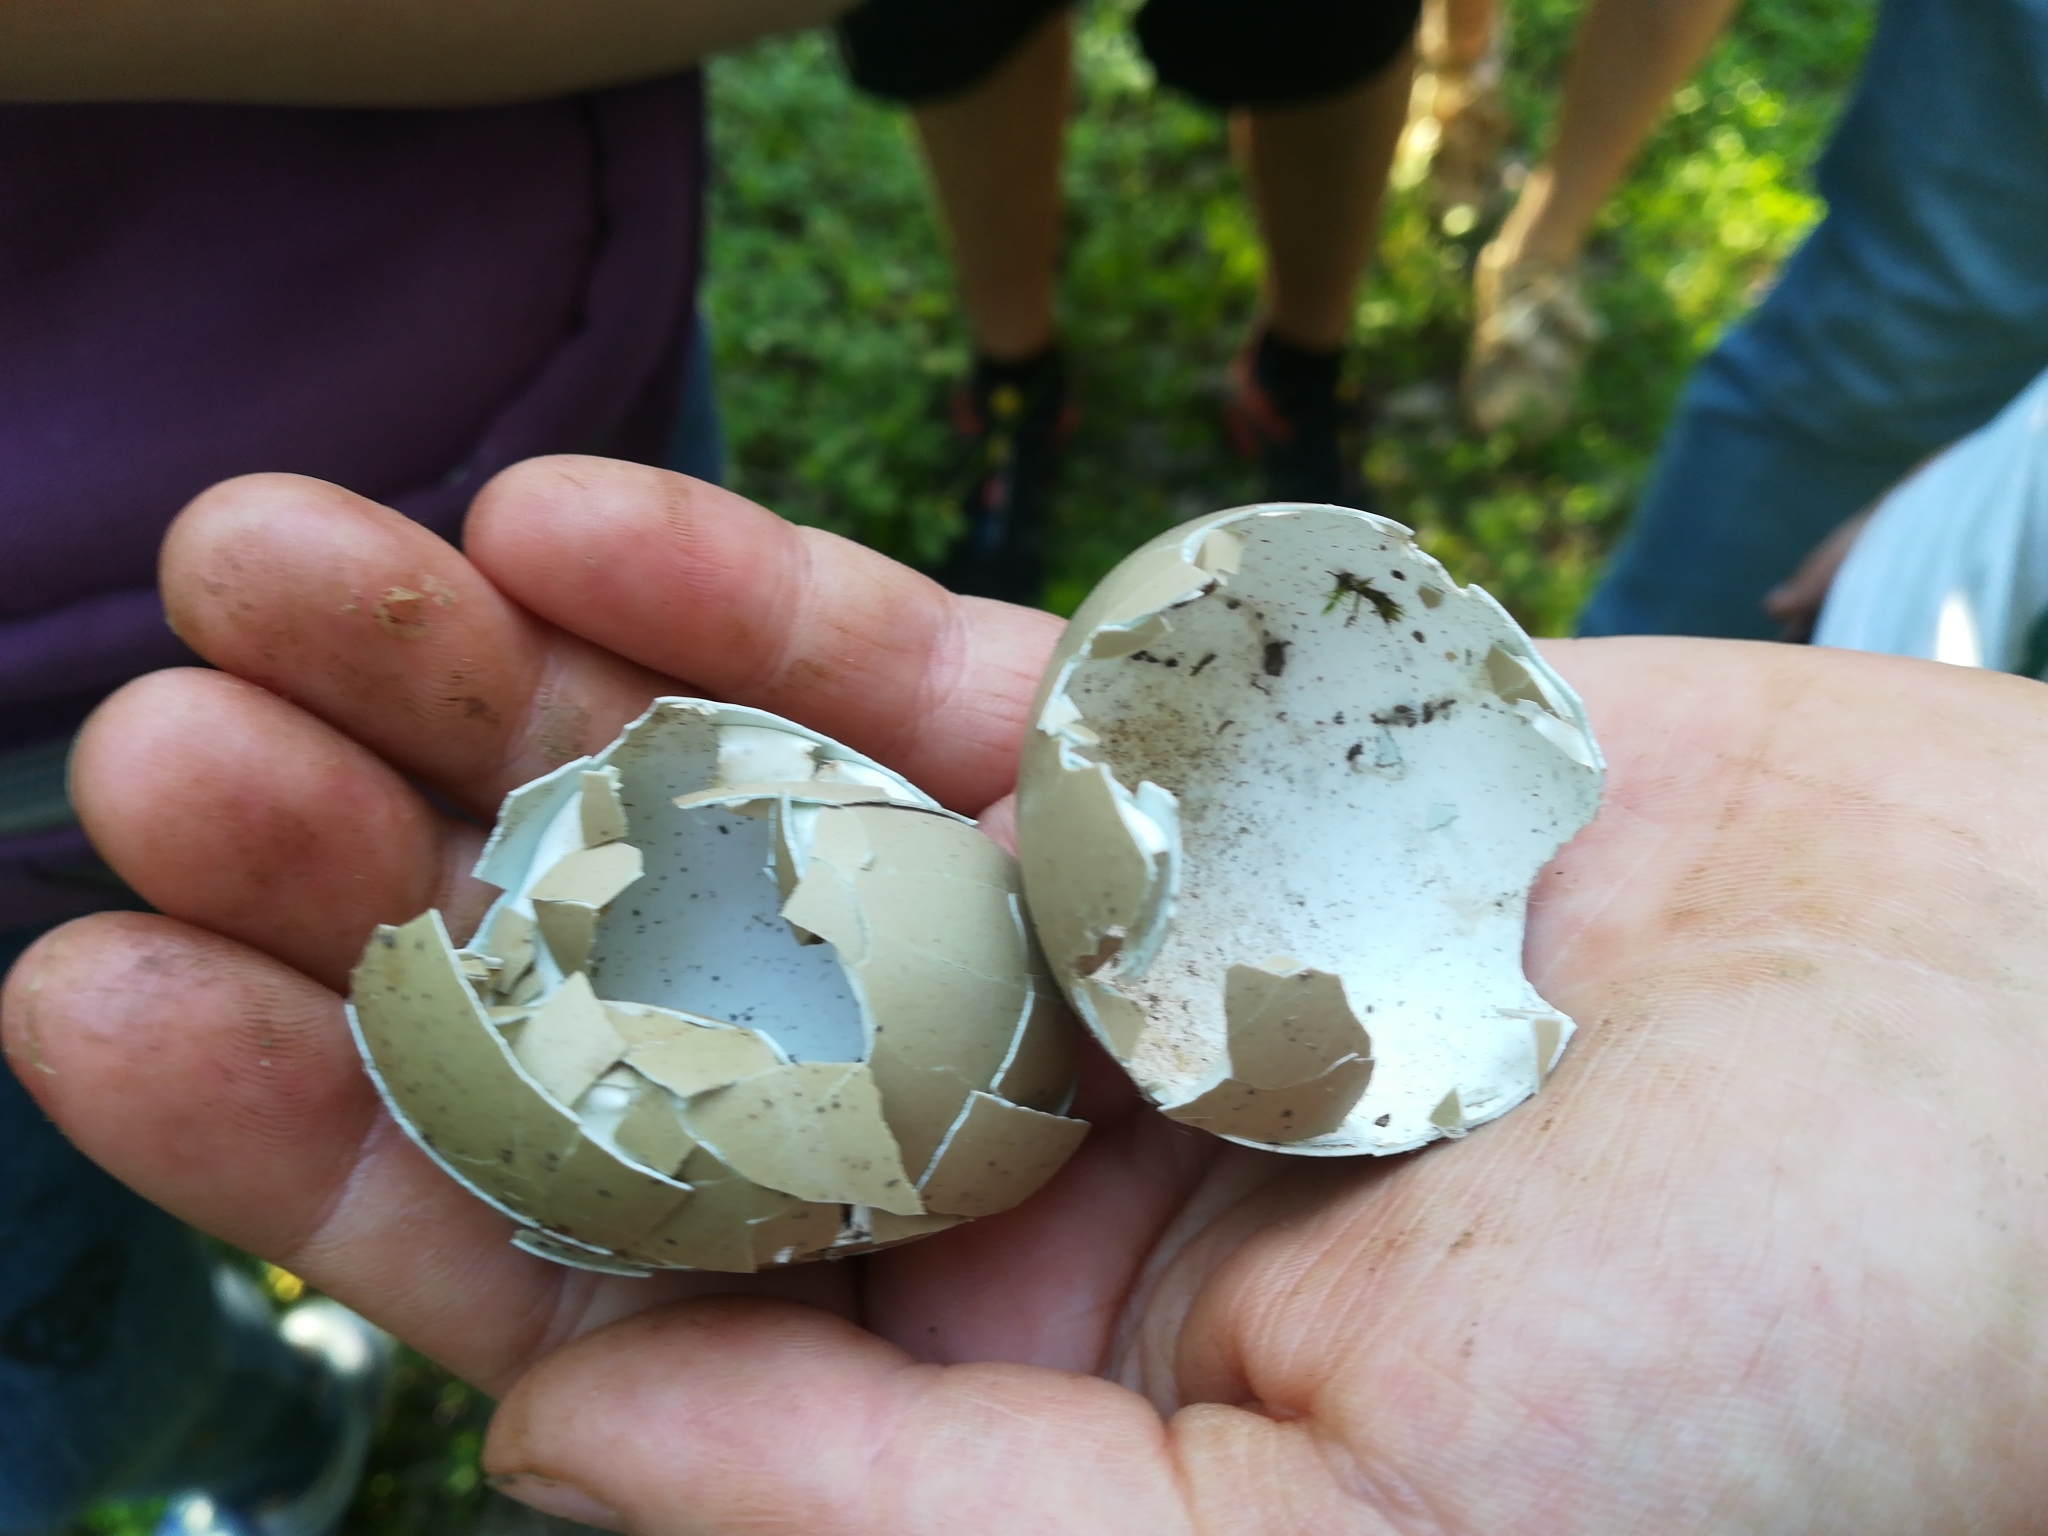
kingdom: Animalia
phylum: Chordata
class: Aves
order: Galliformes
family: Phasianidae
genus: Phasianus
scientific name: Phasianus colchicus
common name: Common pheasant
